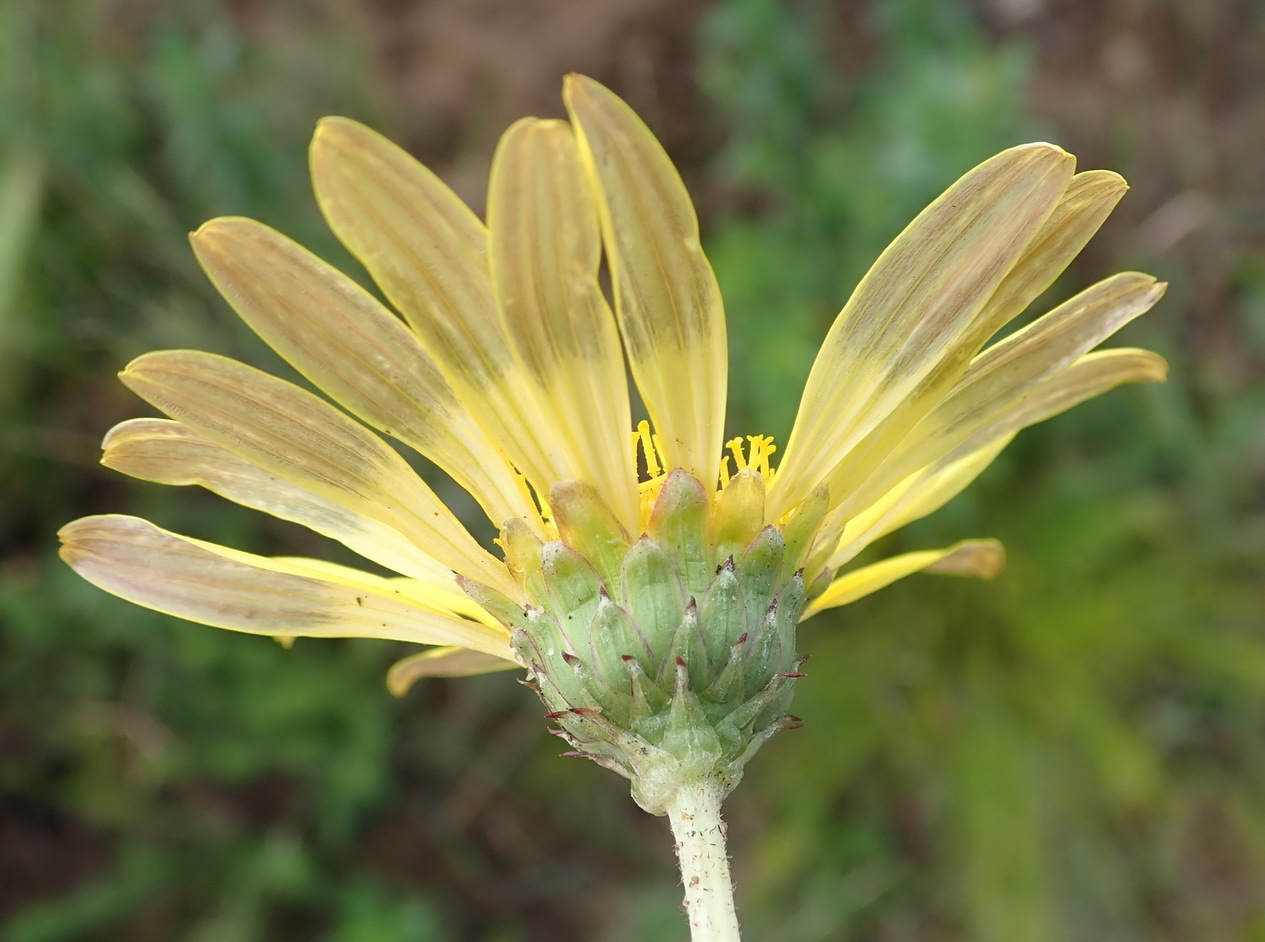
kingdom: Plantae
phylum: Tracheophyta
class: Magnoliopsida
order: Asterales
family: Asteraceae
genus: Arctotheca
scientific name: Arctotheca prostrata
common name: Capeweed
